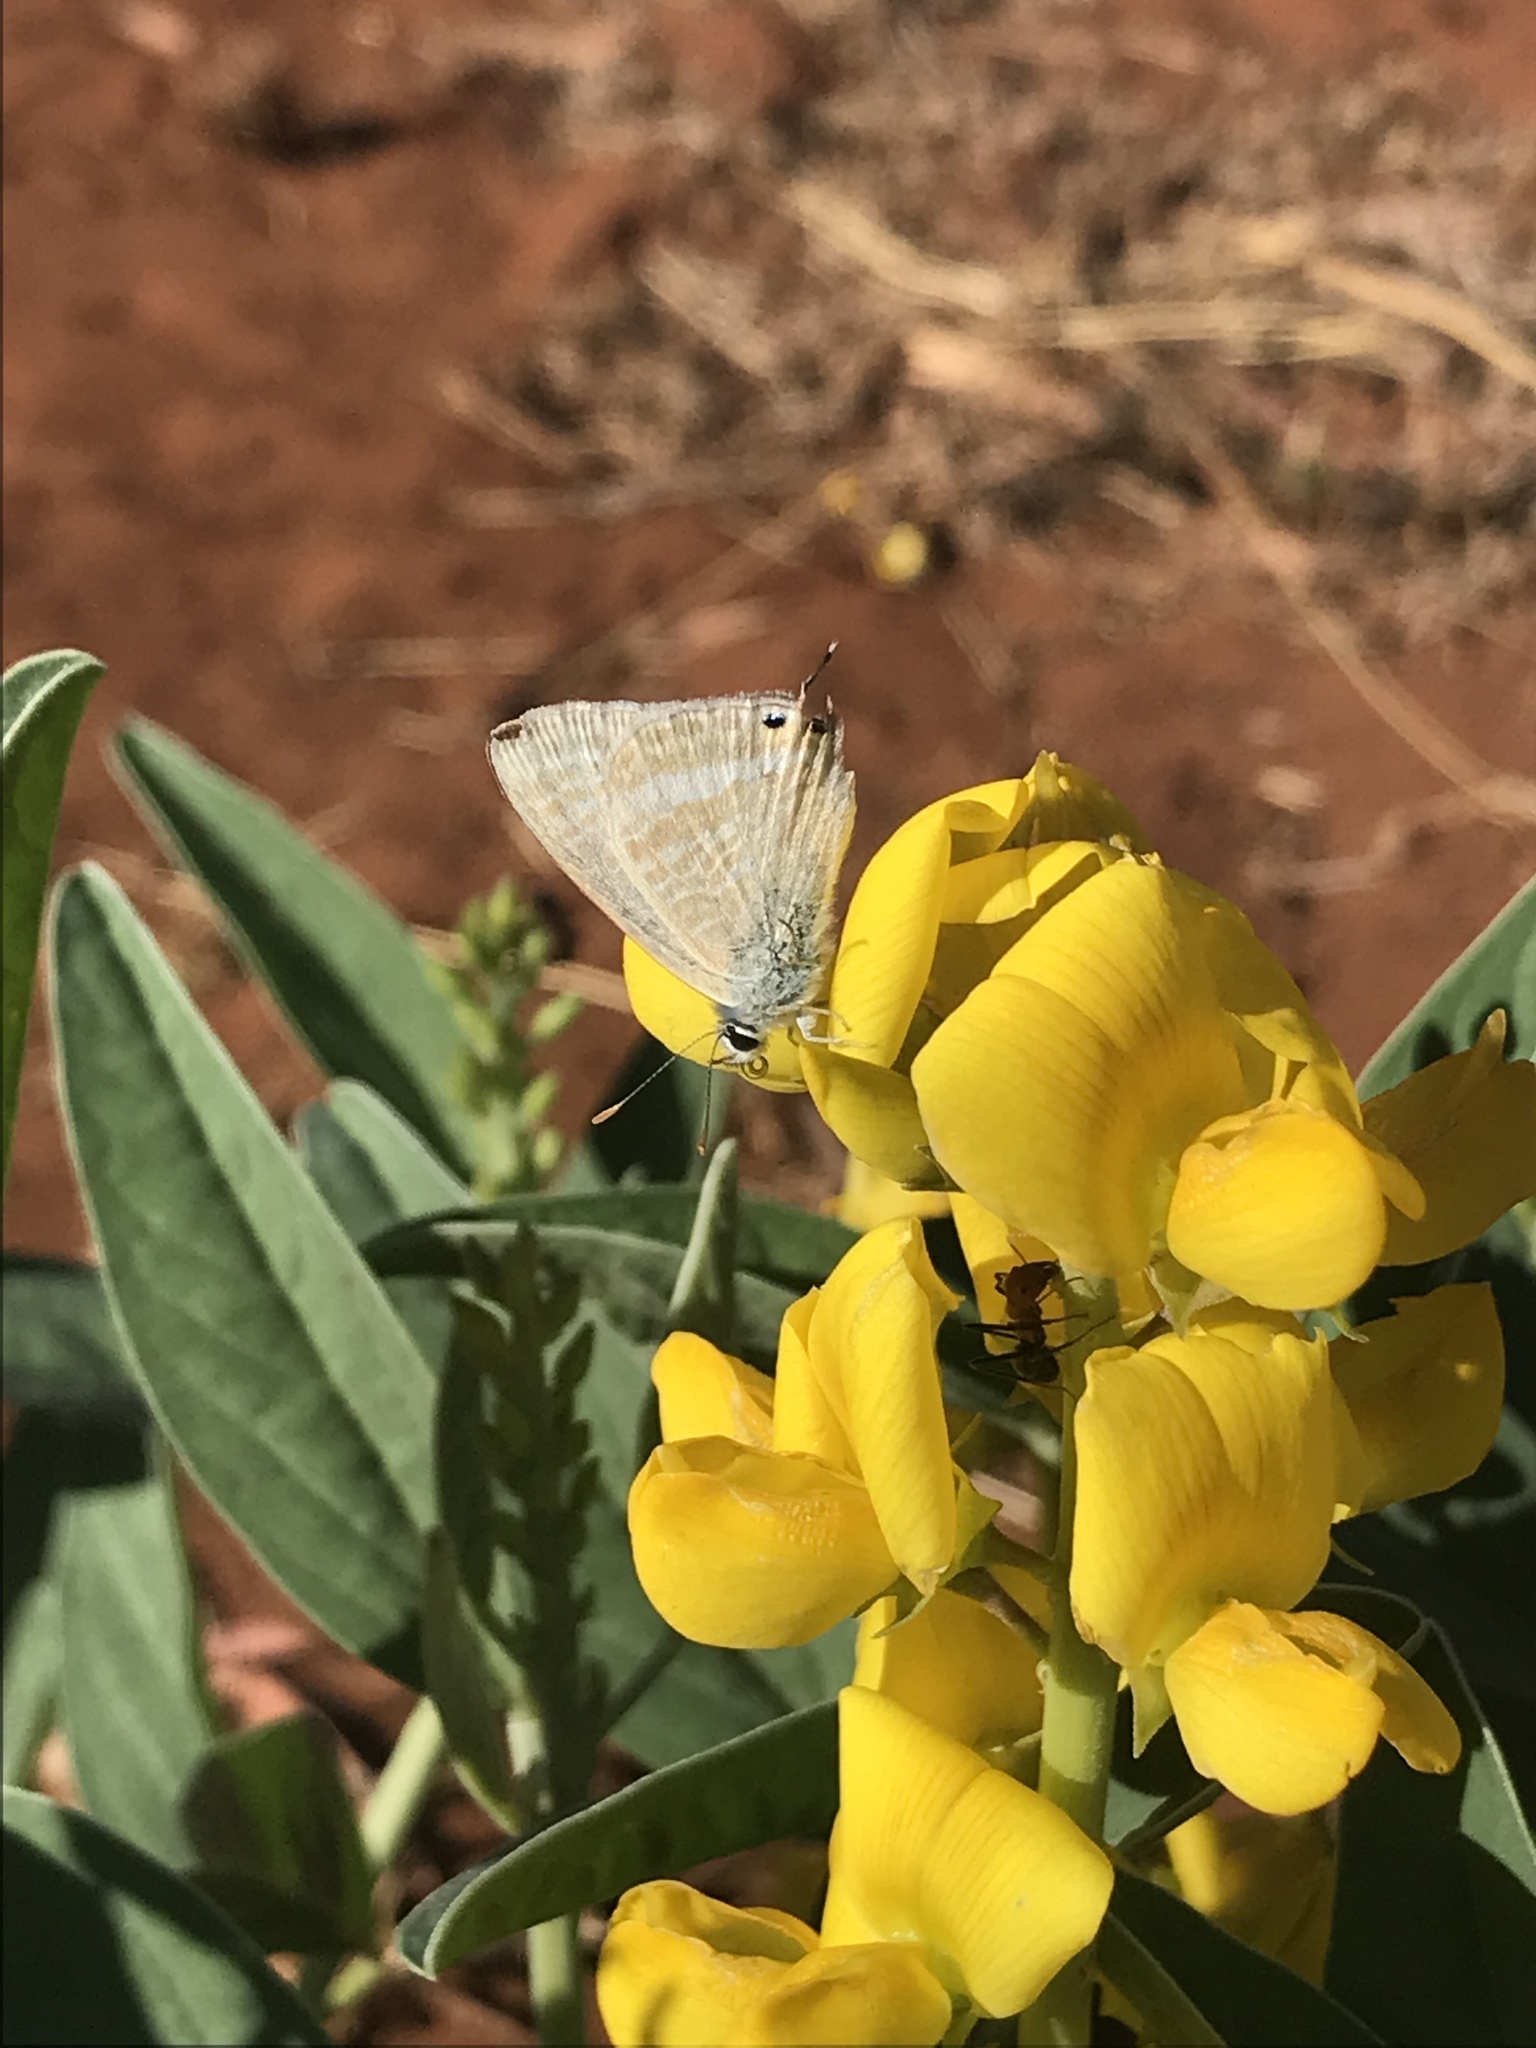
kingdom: Animalia
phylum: Arthropoda
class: Insecta
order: Lepidoptera
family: Lycaenidae
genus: Lampides
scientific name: Lampides boeticus
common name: Long-tailed blue
